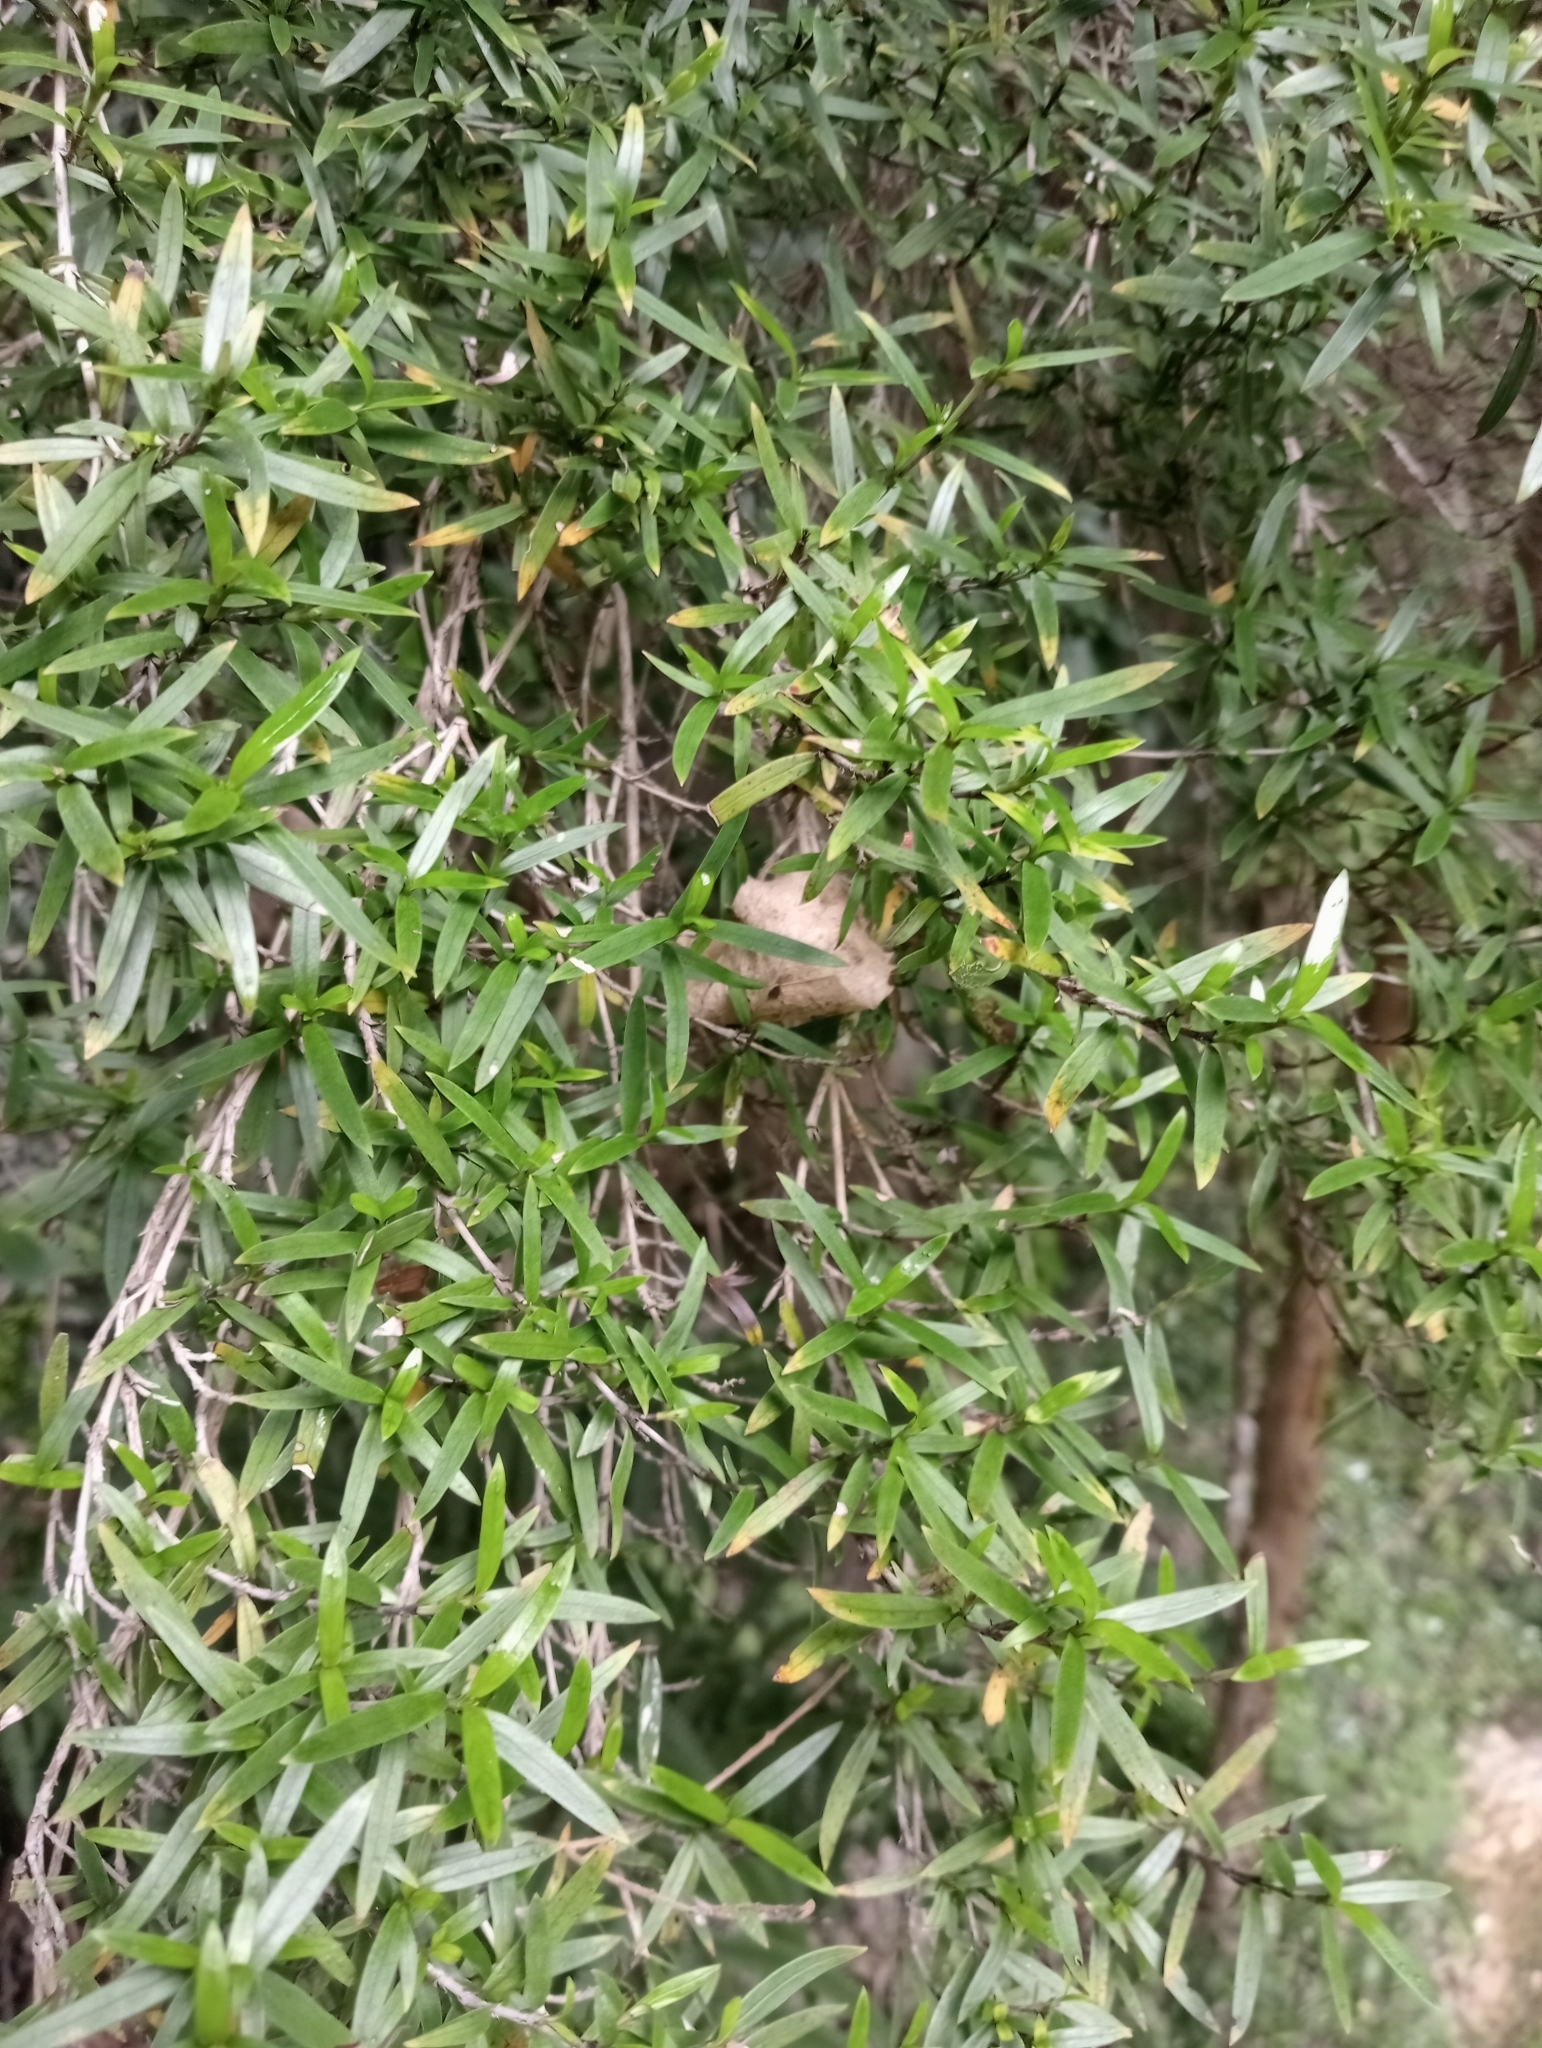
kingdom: Plantae
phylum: Tracheophyta
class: Magnoliopsida
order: Gentianales
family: Rubiaceae
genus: Coprosma
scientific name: Coprosma linariifolia
